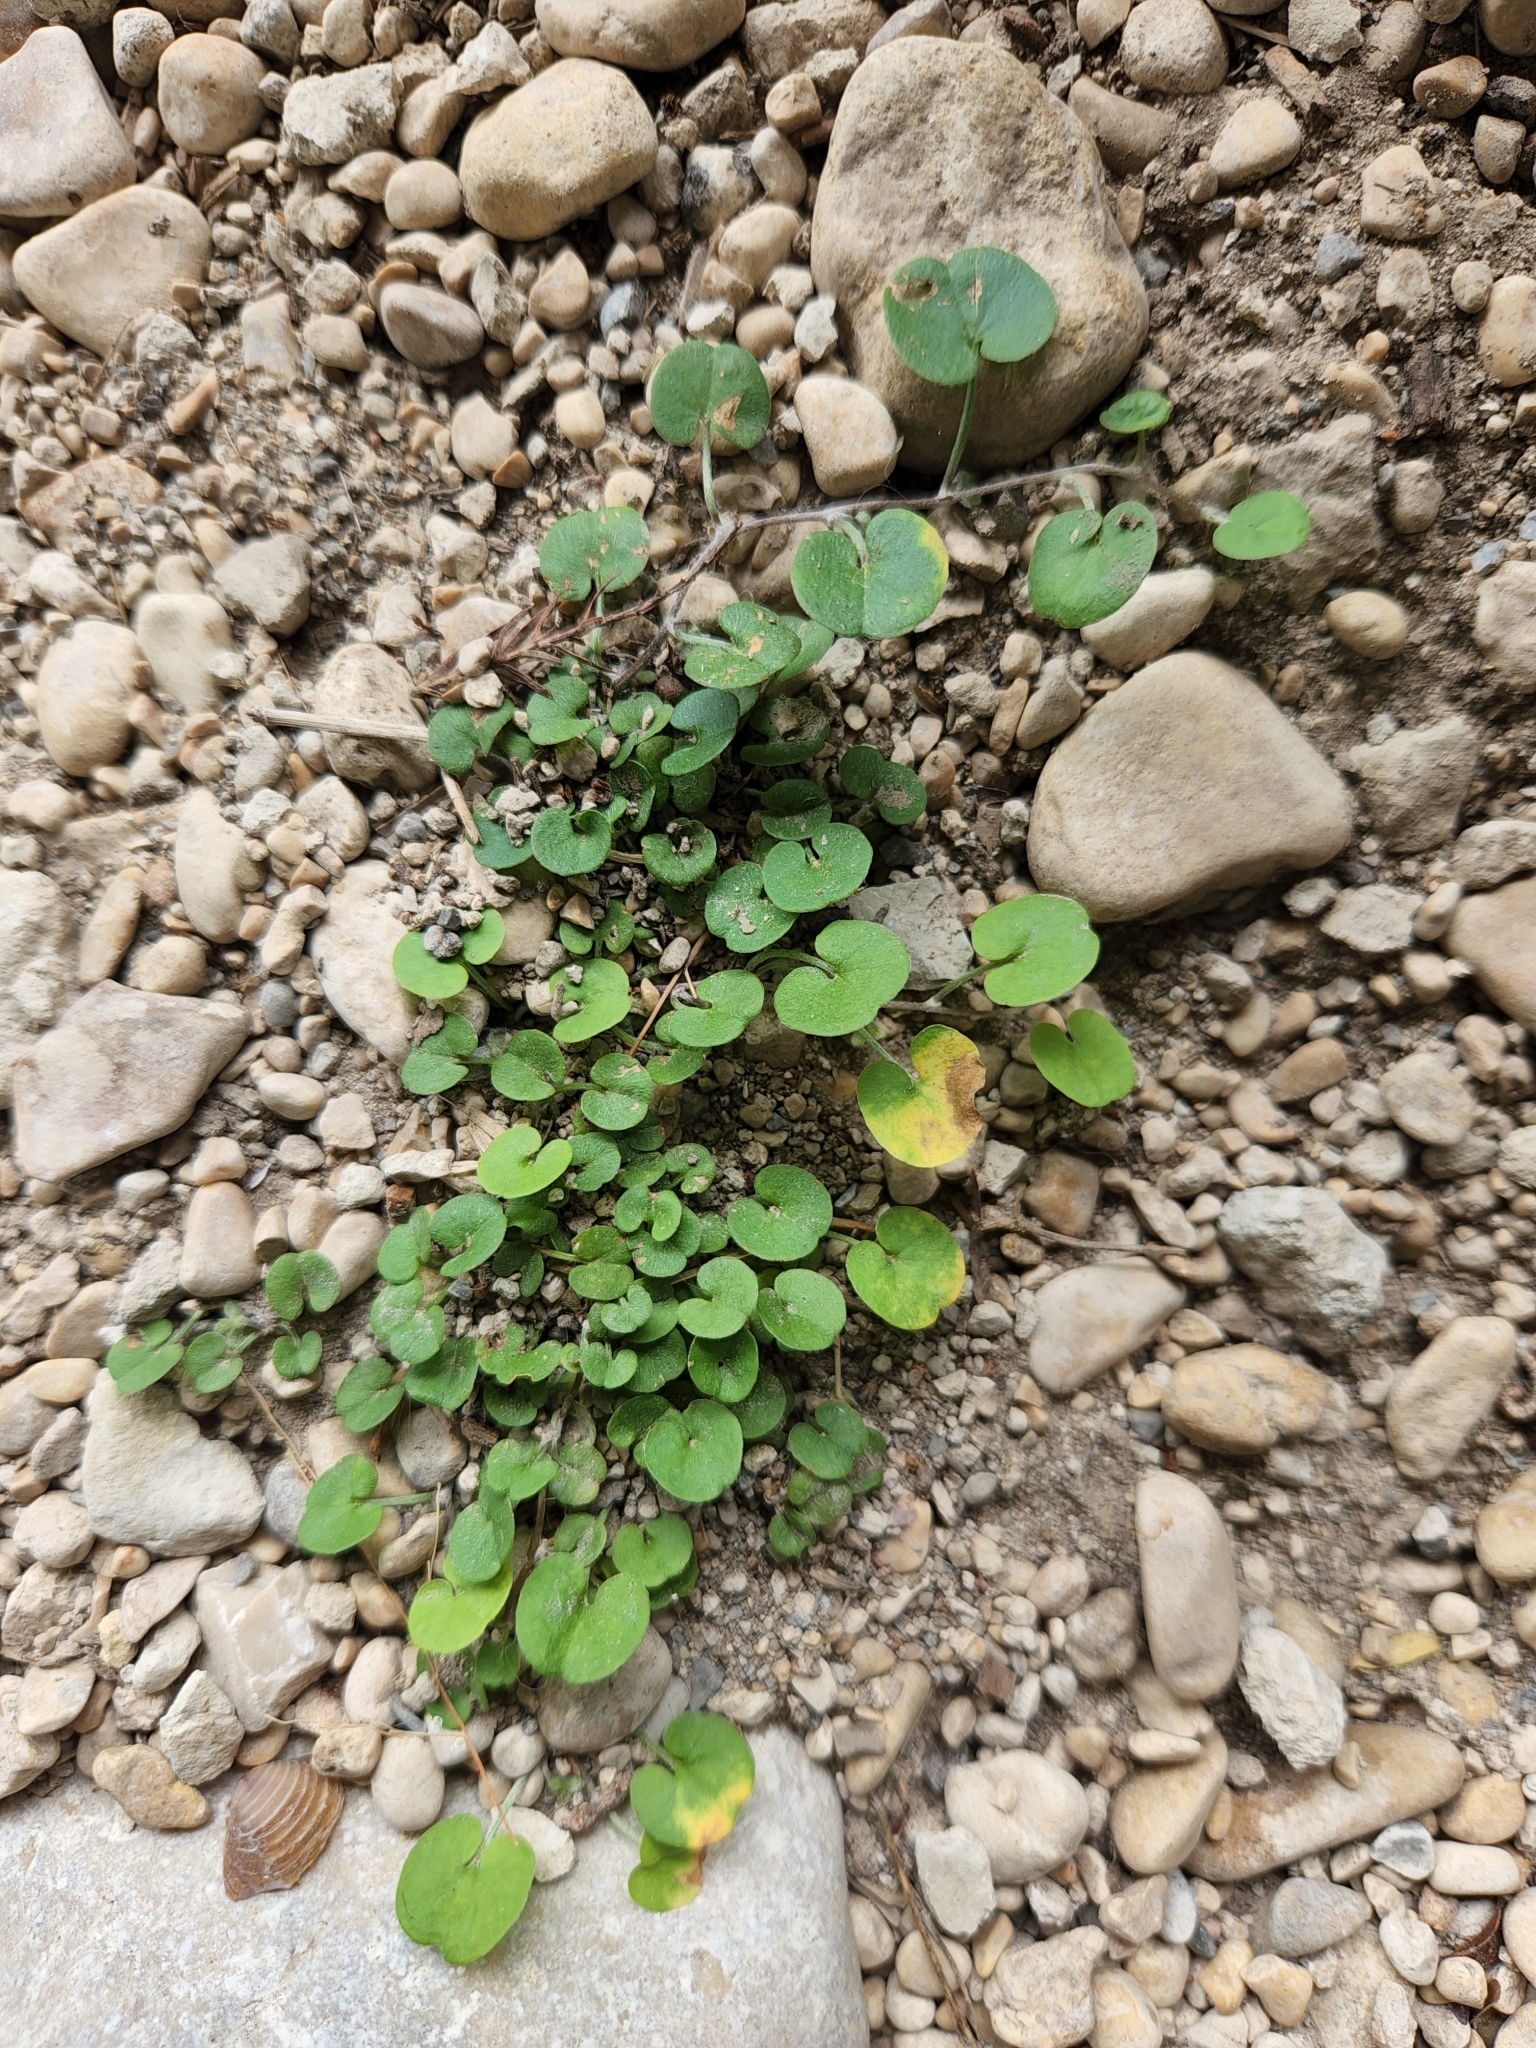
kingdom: Plantae
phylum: Tracheophyta
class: Magnoliopsida
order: Solanales
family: Convolvulaceae
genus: Dichondra
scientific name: Dichondra carolinensis
